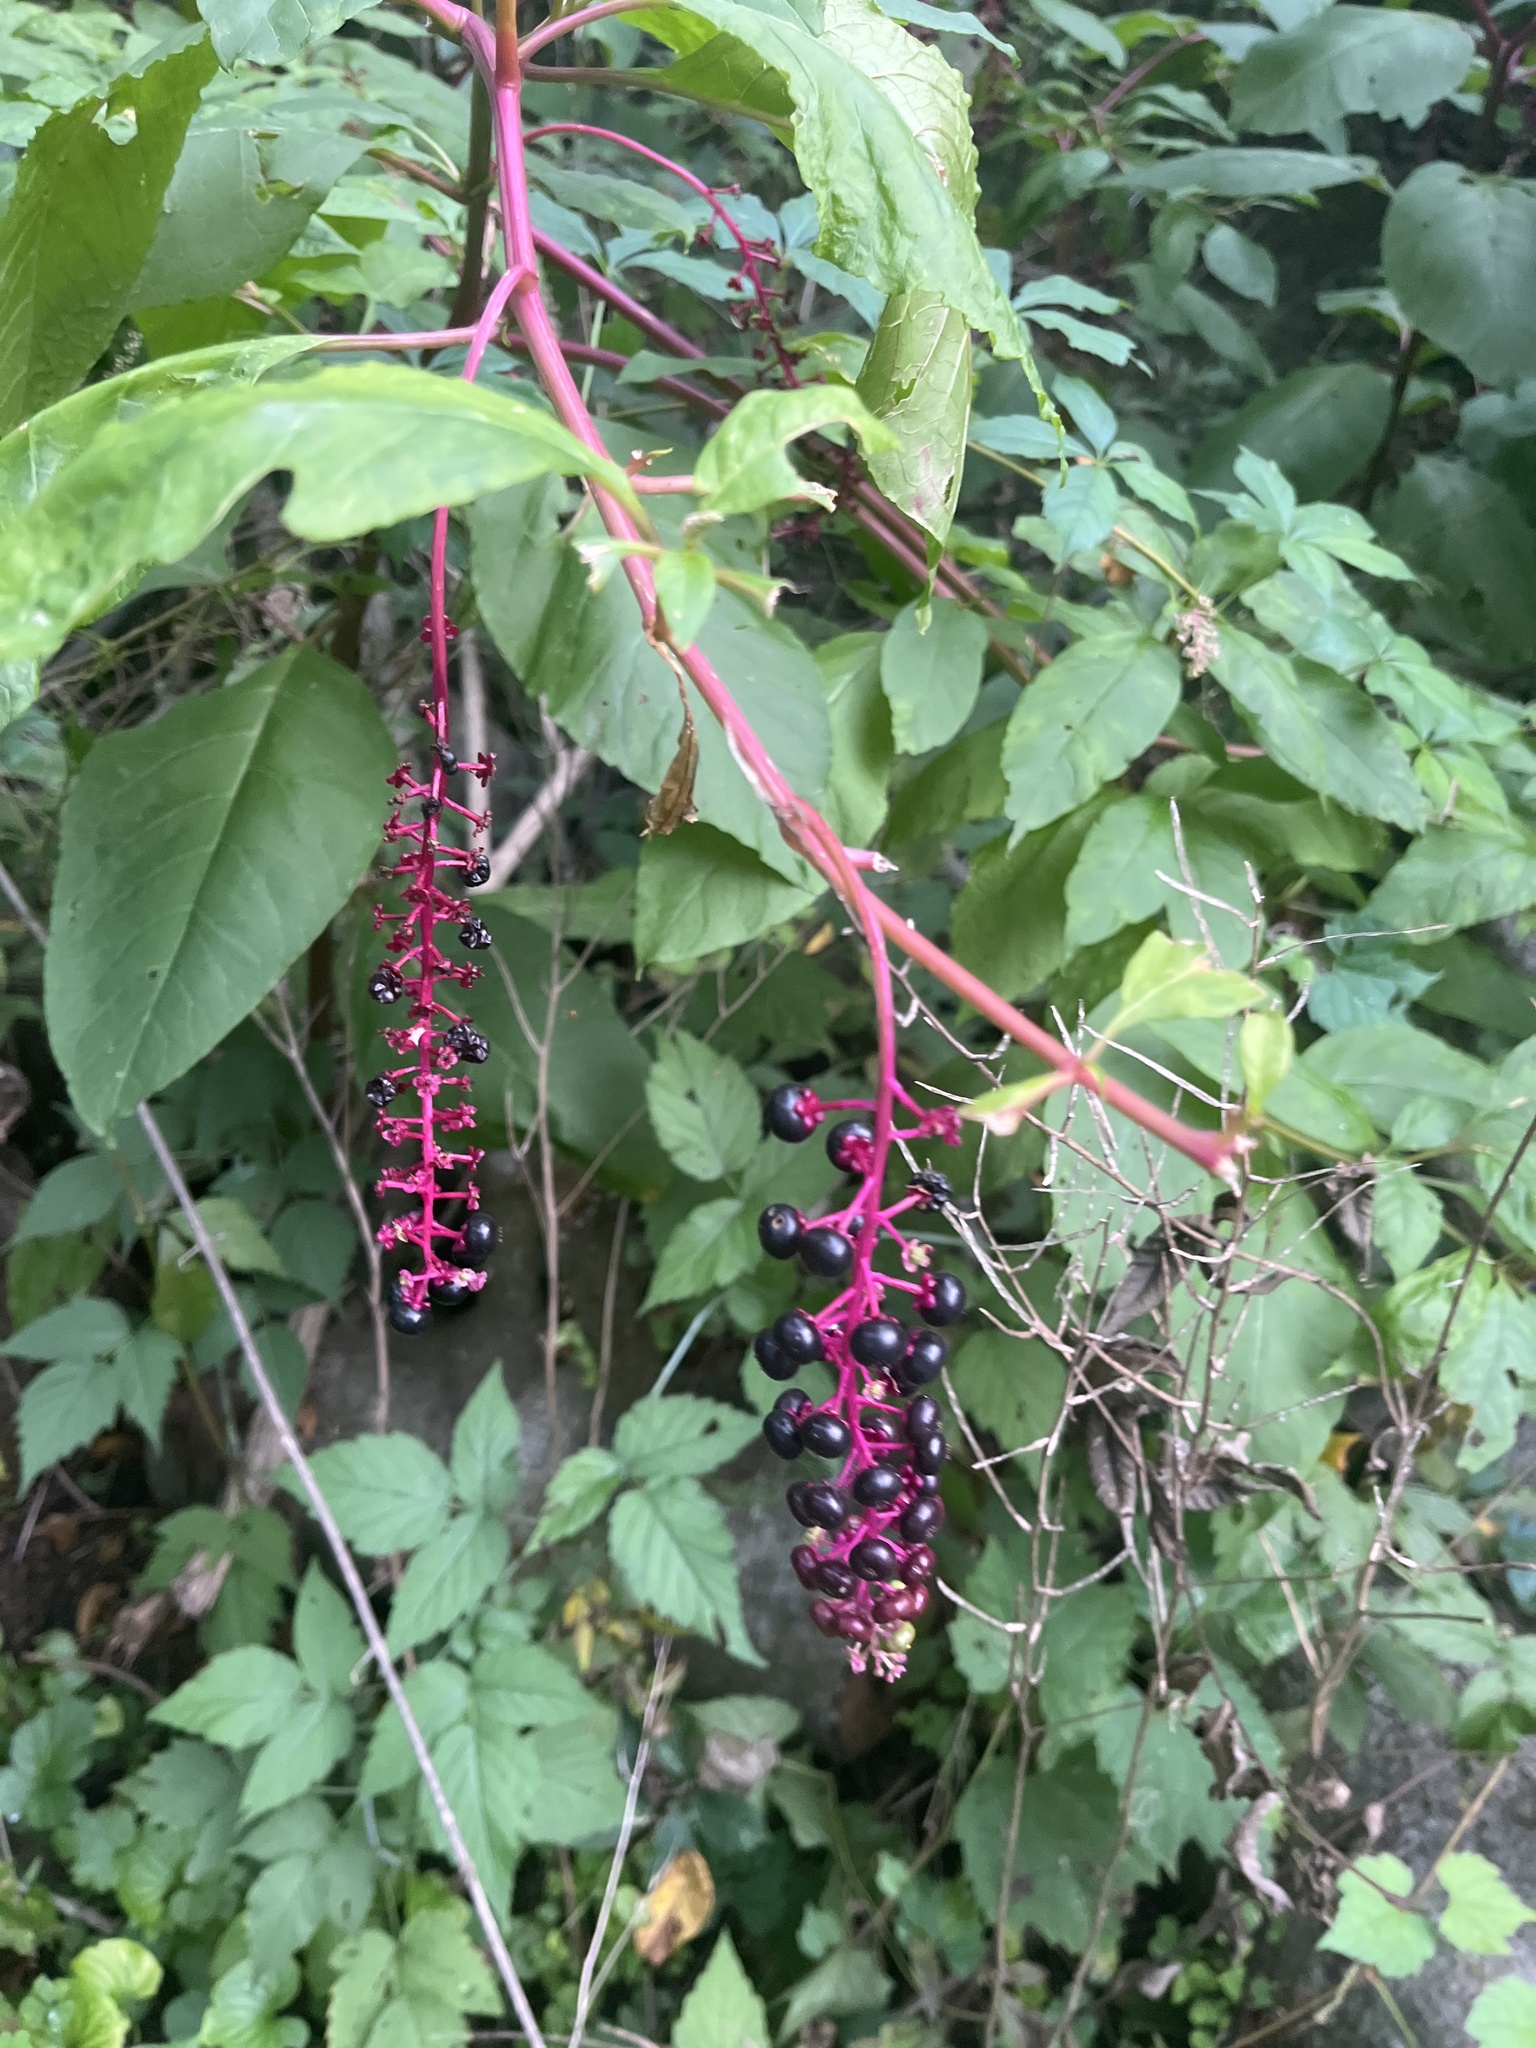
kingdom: Plantae
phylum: Tracheophyta
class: Magnoliopsida
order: Caryophyllales
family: Phytolaccaceae
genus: Phytolacca
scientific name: Phytolacca americana
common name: American pokeweed
